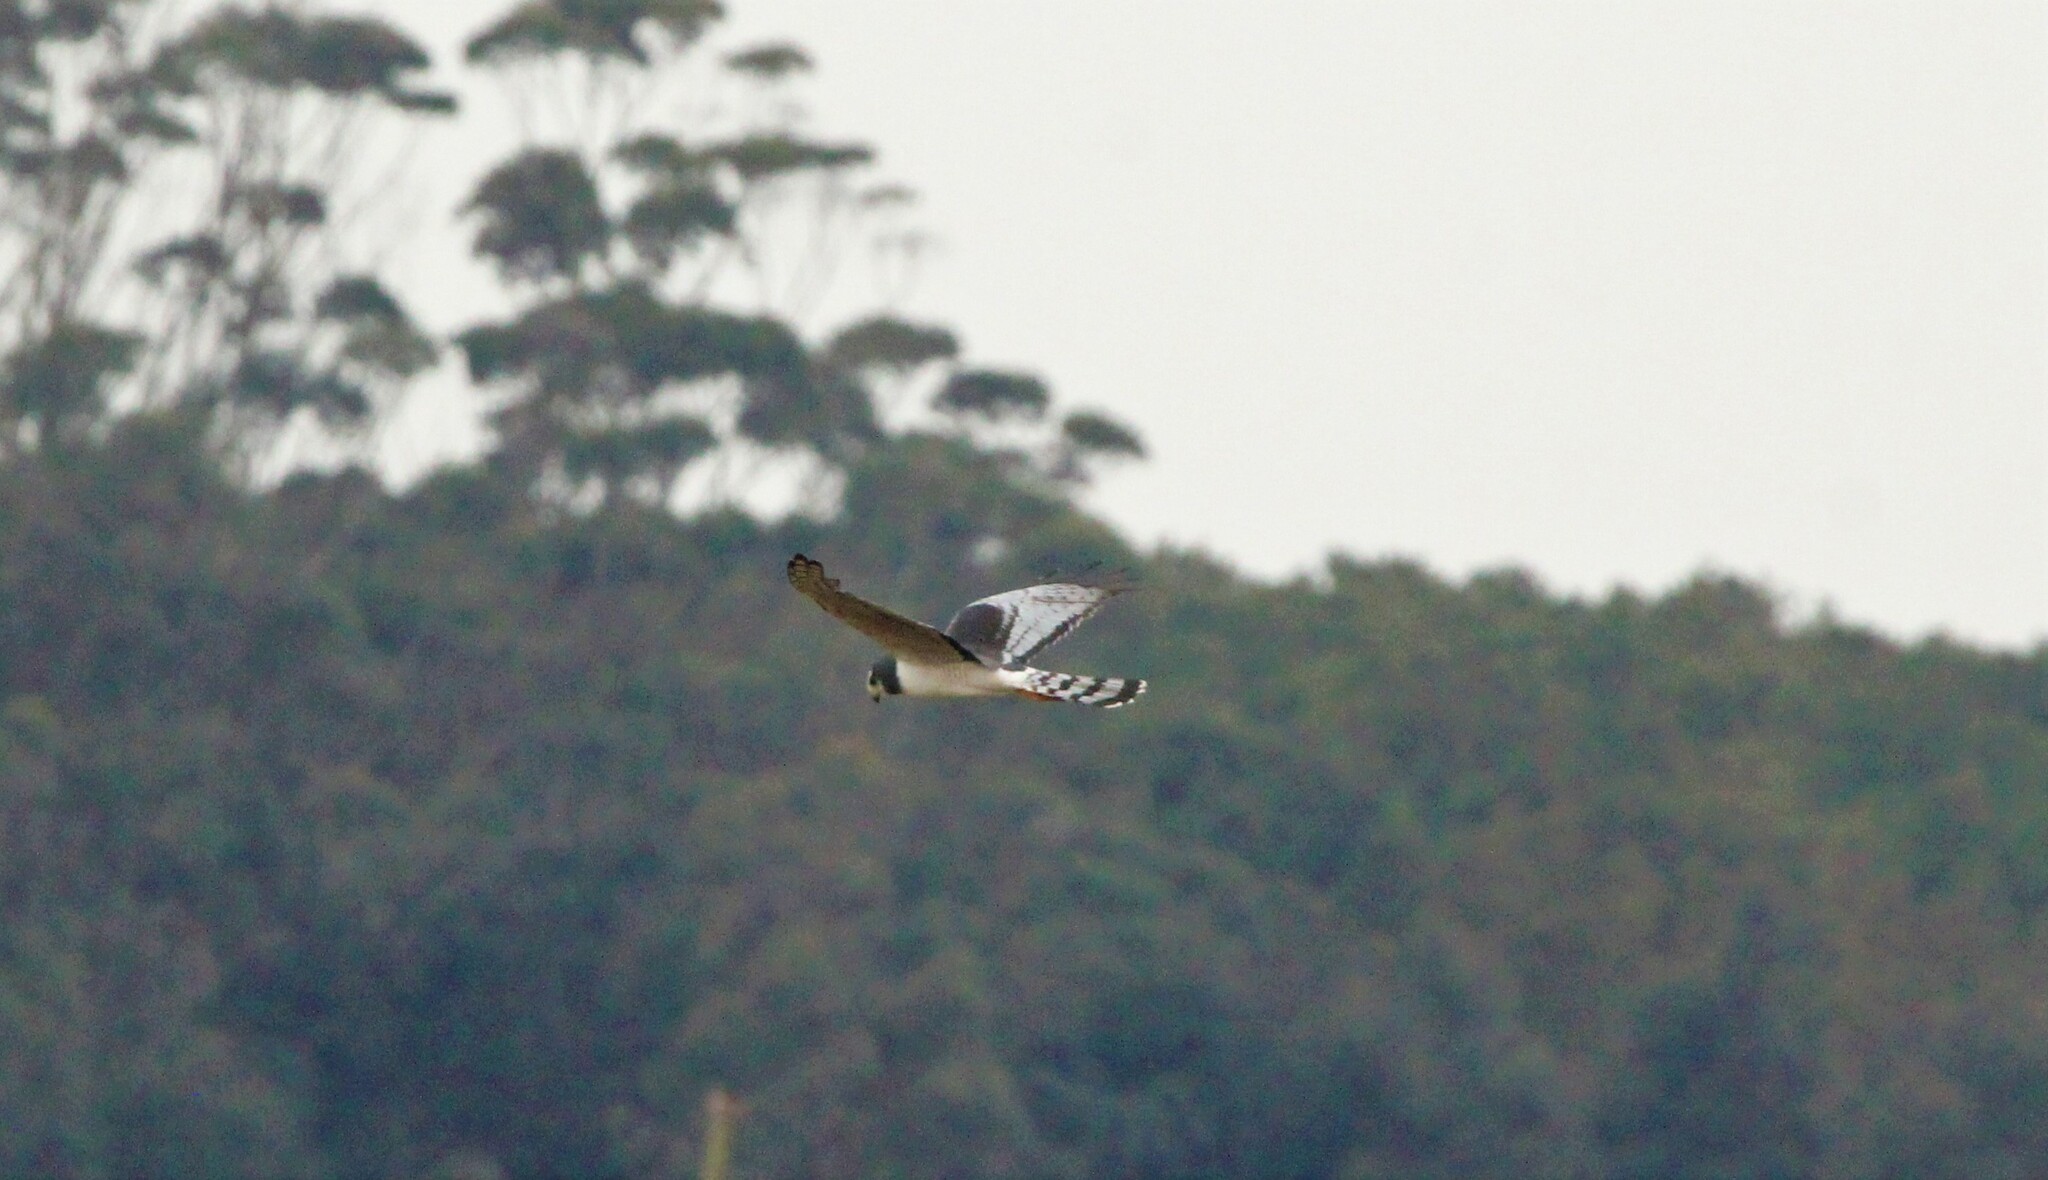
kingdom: Animalia
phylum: Chordata
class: Aves
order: Accipitriformes
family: Accipitridae
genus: Circus
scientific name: Circus buffoni
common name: Long-winged harrier
